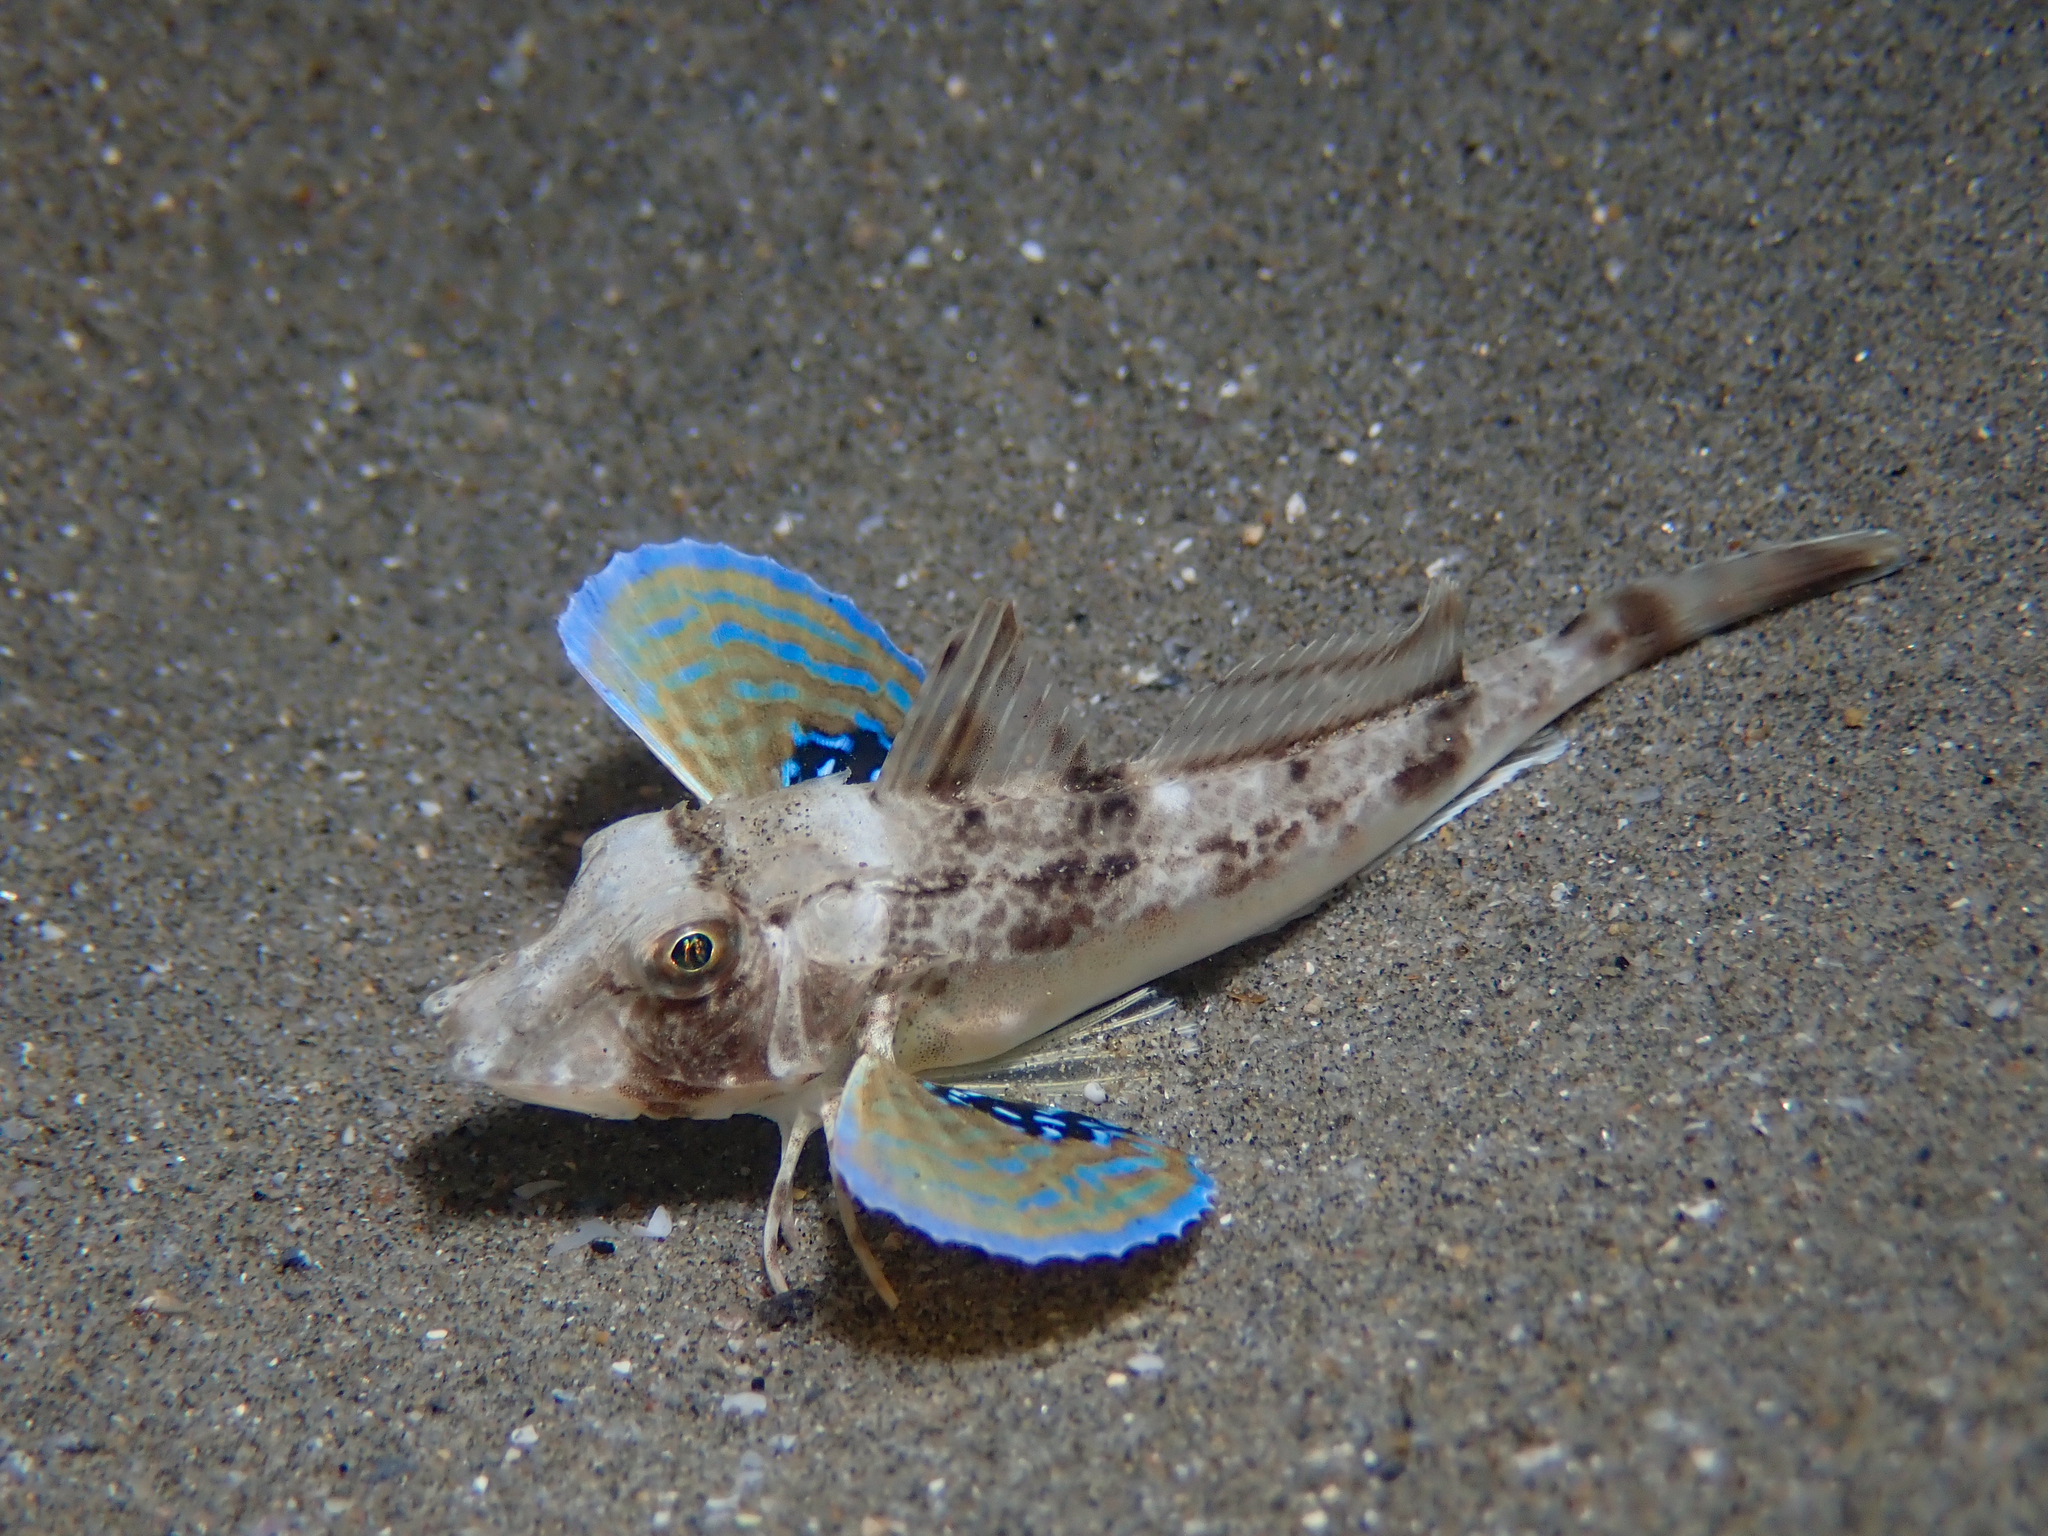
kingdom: Animalia
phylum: Chordata
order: Scorpaeniformes
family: Triglidae
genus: Chelidonichthys
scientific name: Chelidonichthys lucerna
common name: Tub gurnard
